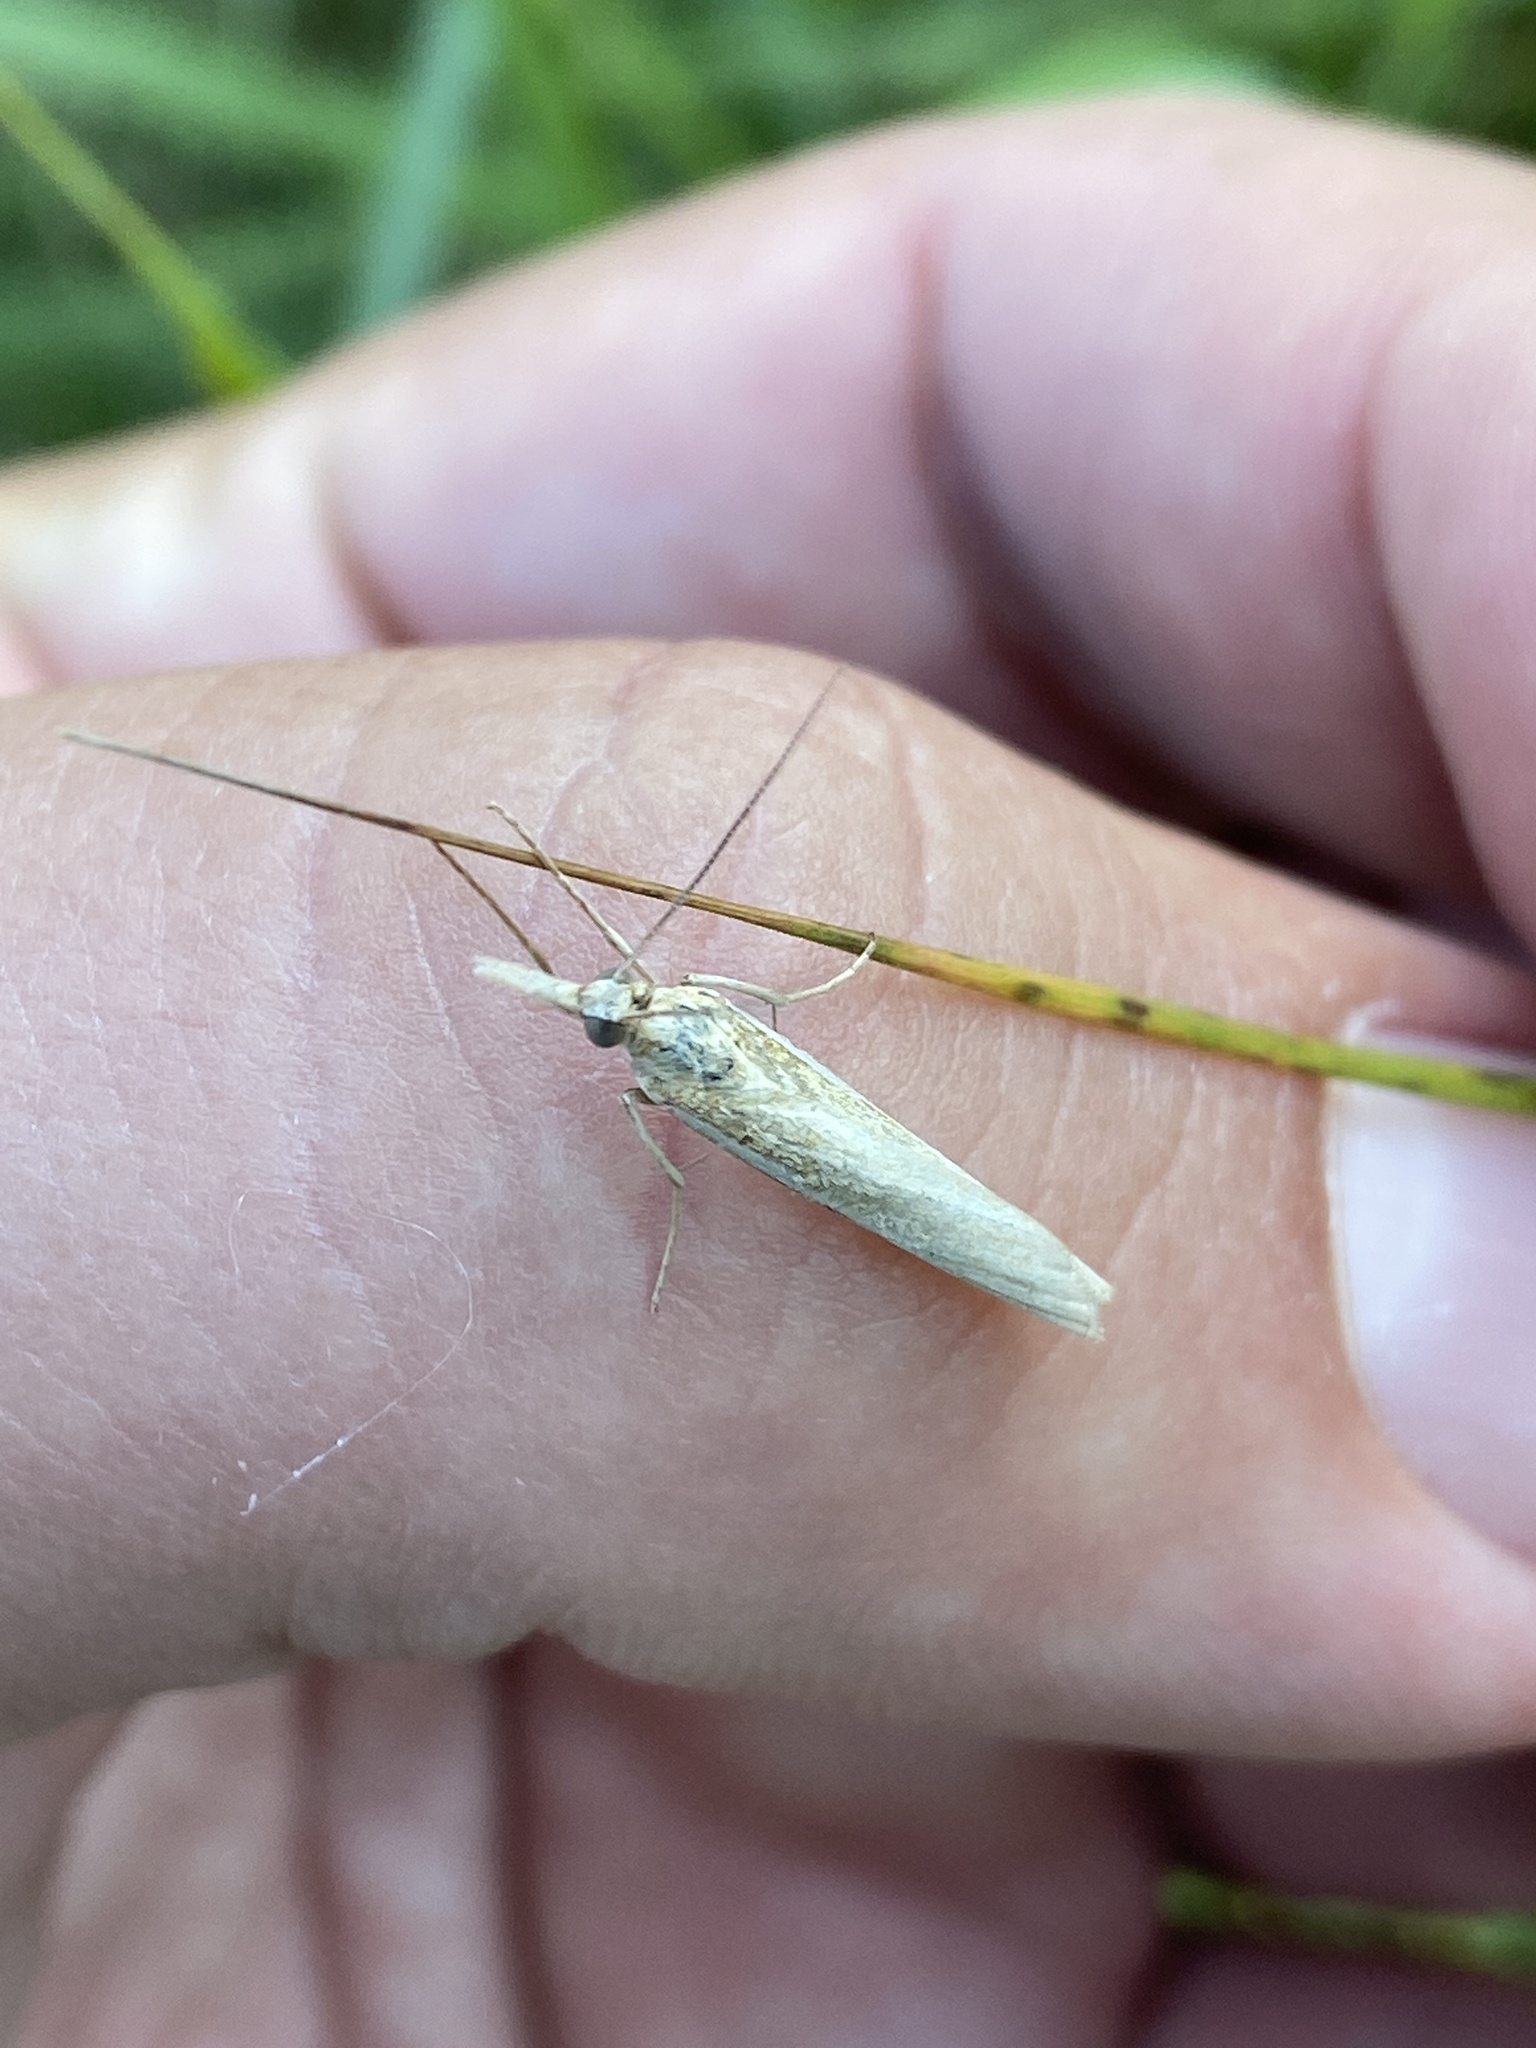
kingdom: Animalia
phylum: Arthropoda
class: Insecta
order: Lepidoptera
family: Crambidae
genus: Agriphila
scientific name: Agriphila tristellus
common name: Common grass-veneer
